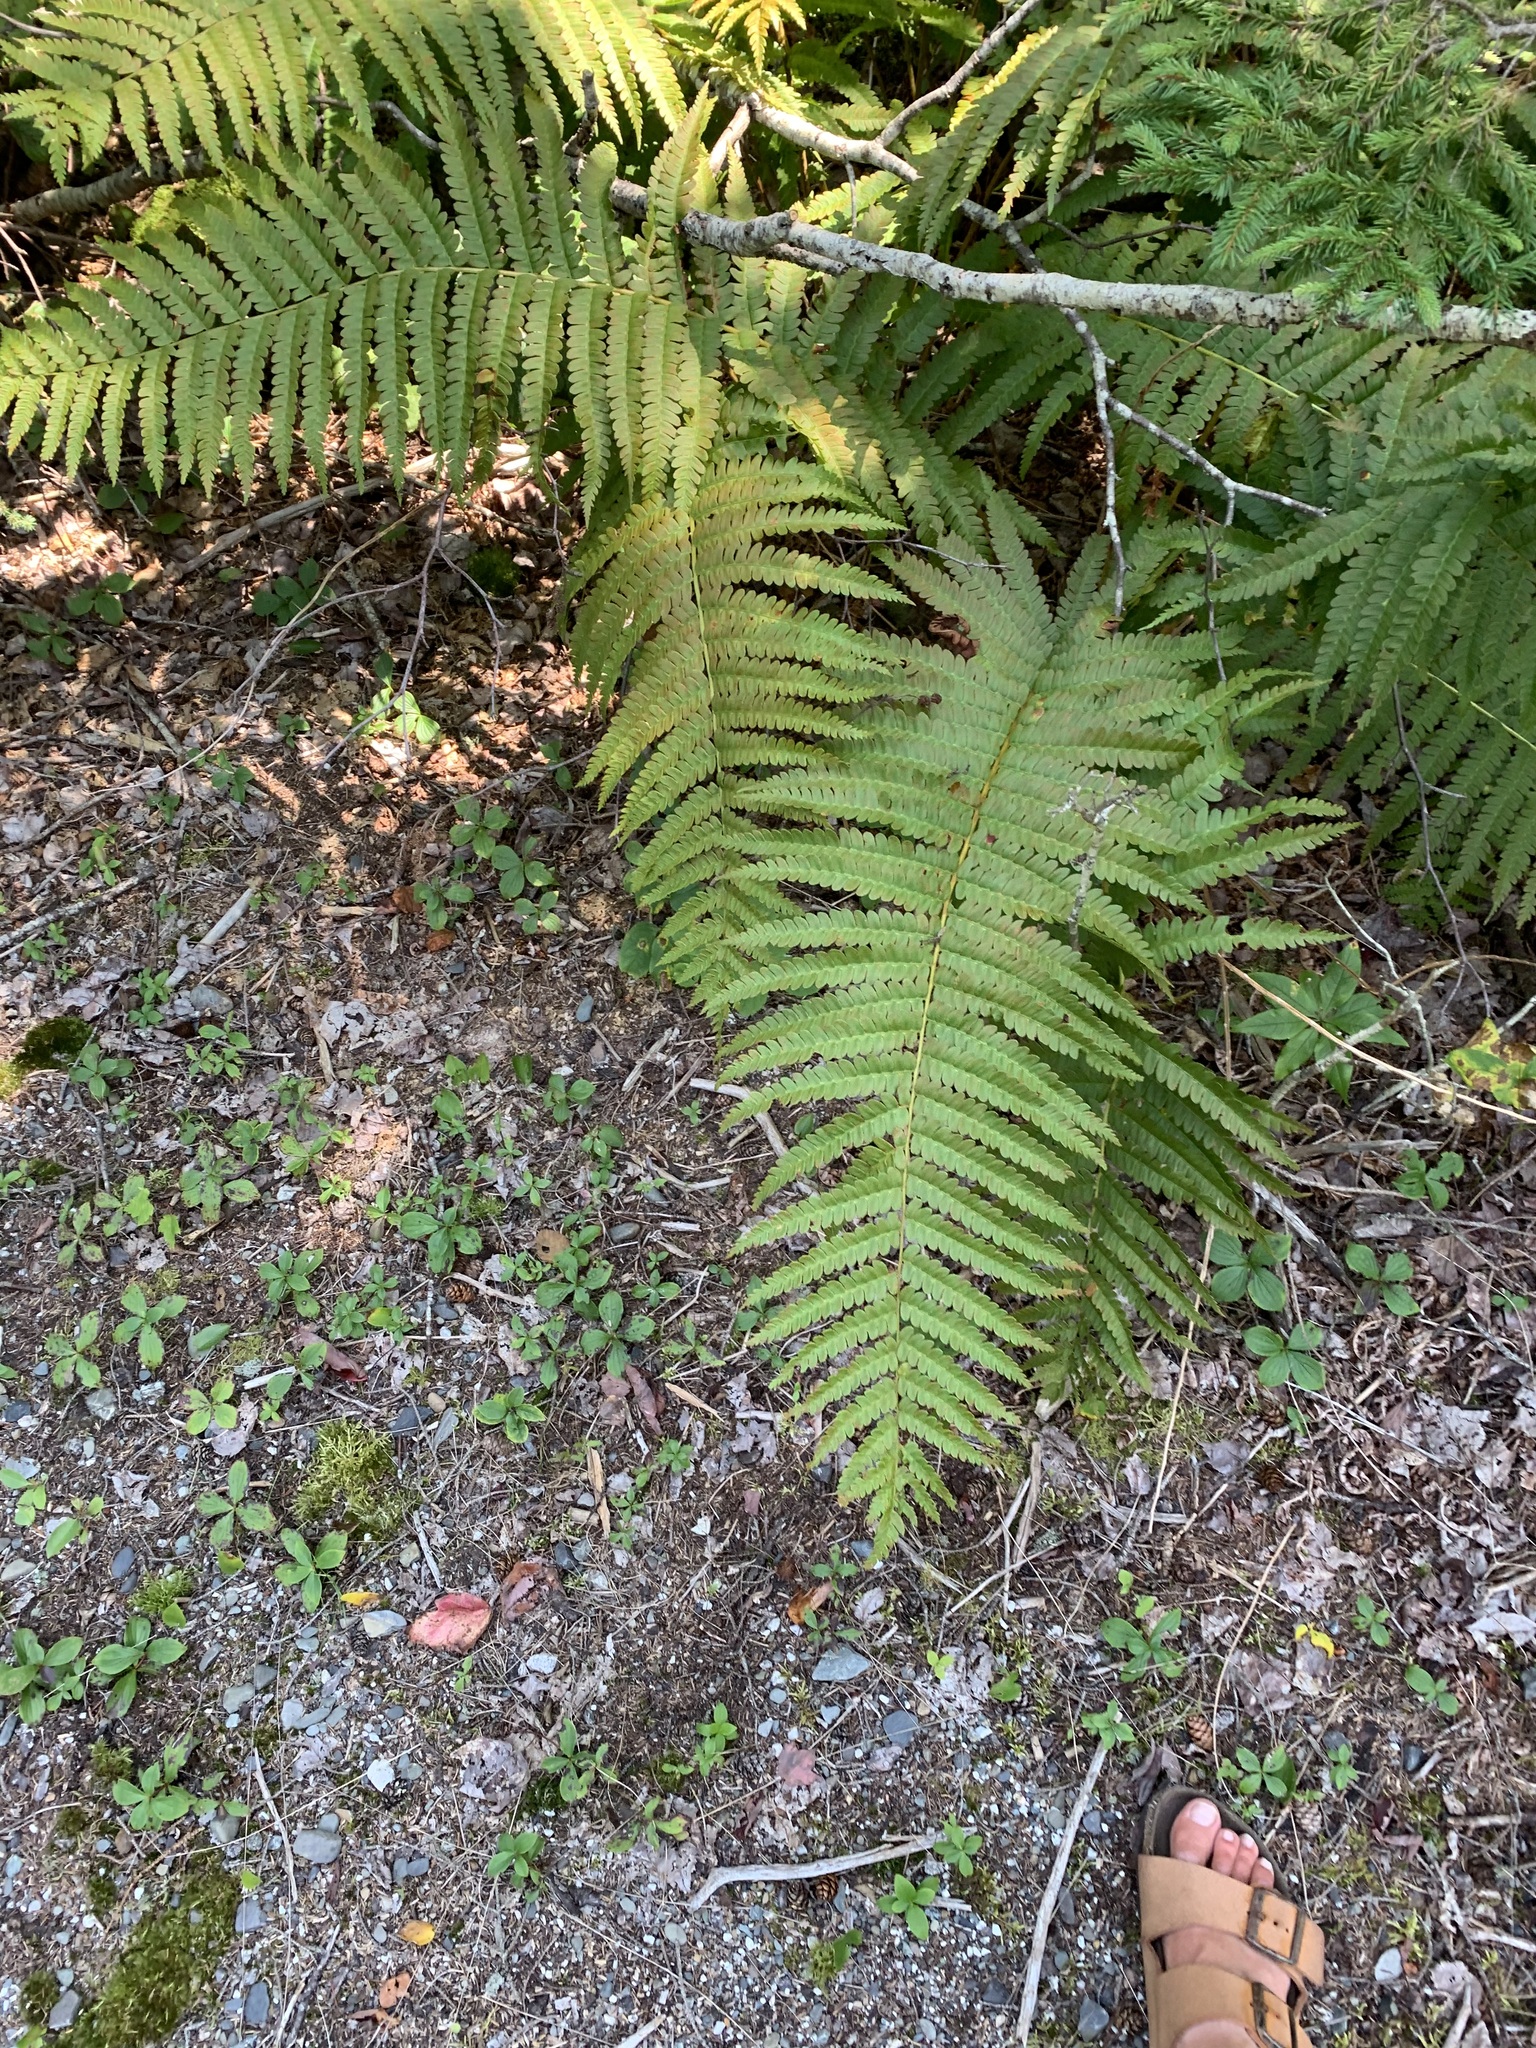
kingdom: Plantae
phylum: Tracheophyta
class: Polypodiopsida
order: Osmundales
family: Osmundaceae
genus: Osmundastrum
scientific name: Osmundastrum cinnamomeum
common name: Cinnamon fern
